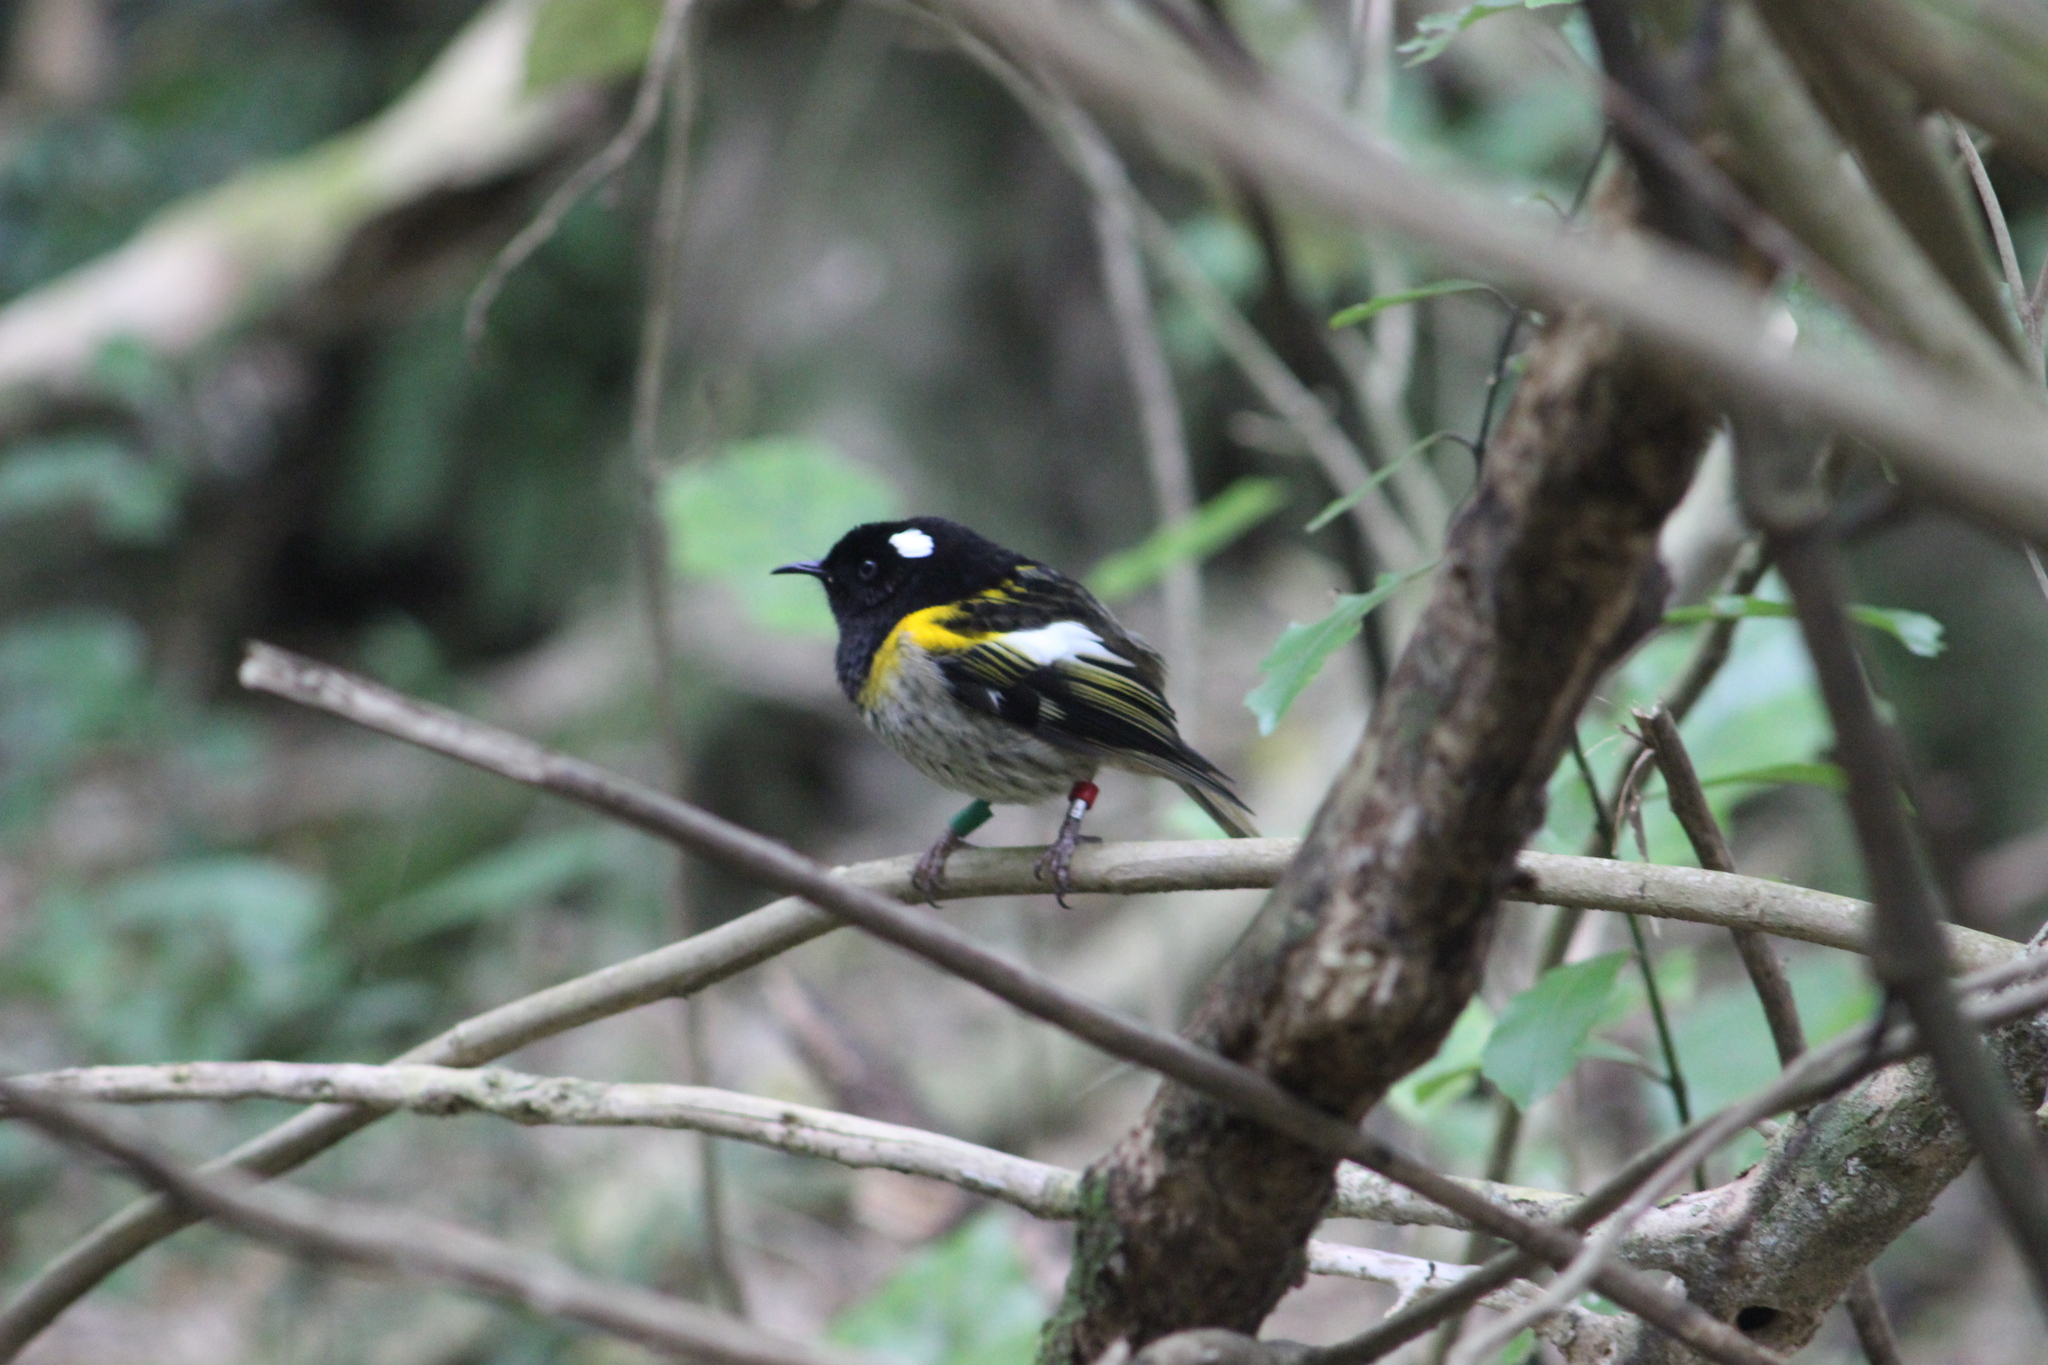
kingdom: Animalia
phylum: Chordata
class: Aves
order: Passeriformes
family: Notiomystidae
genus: Notiomystis
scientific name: Notiomystis cincta
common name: Stitchbird
